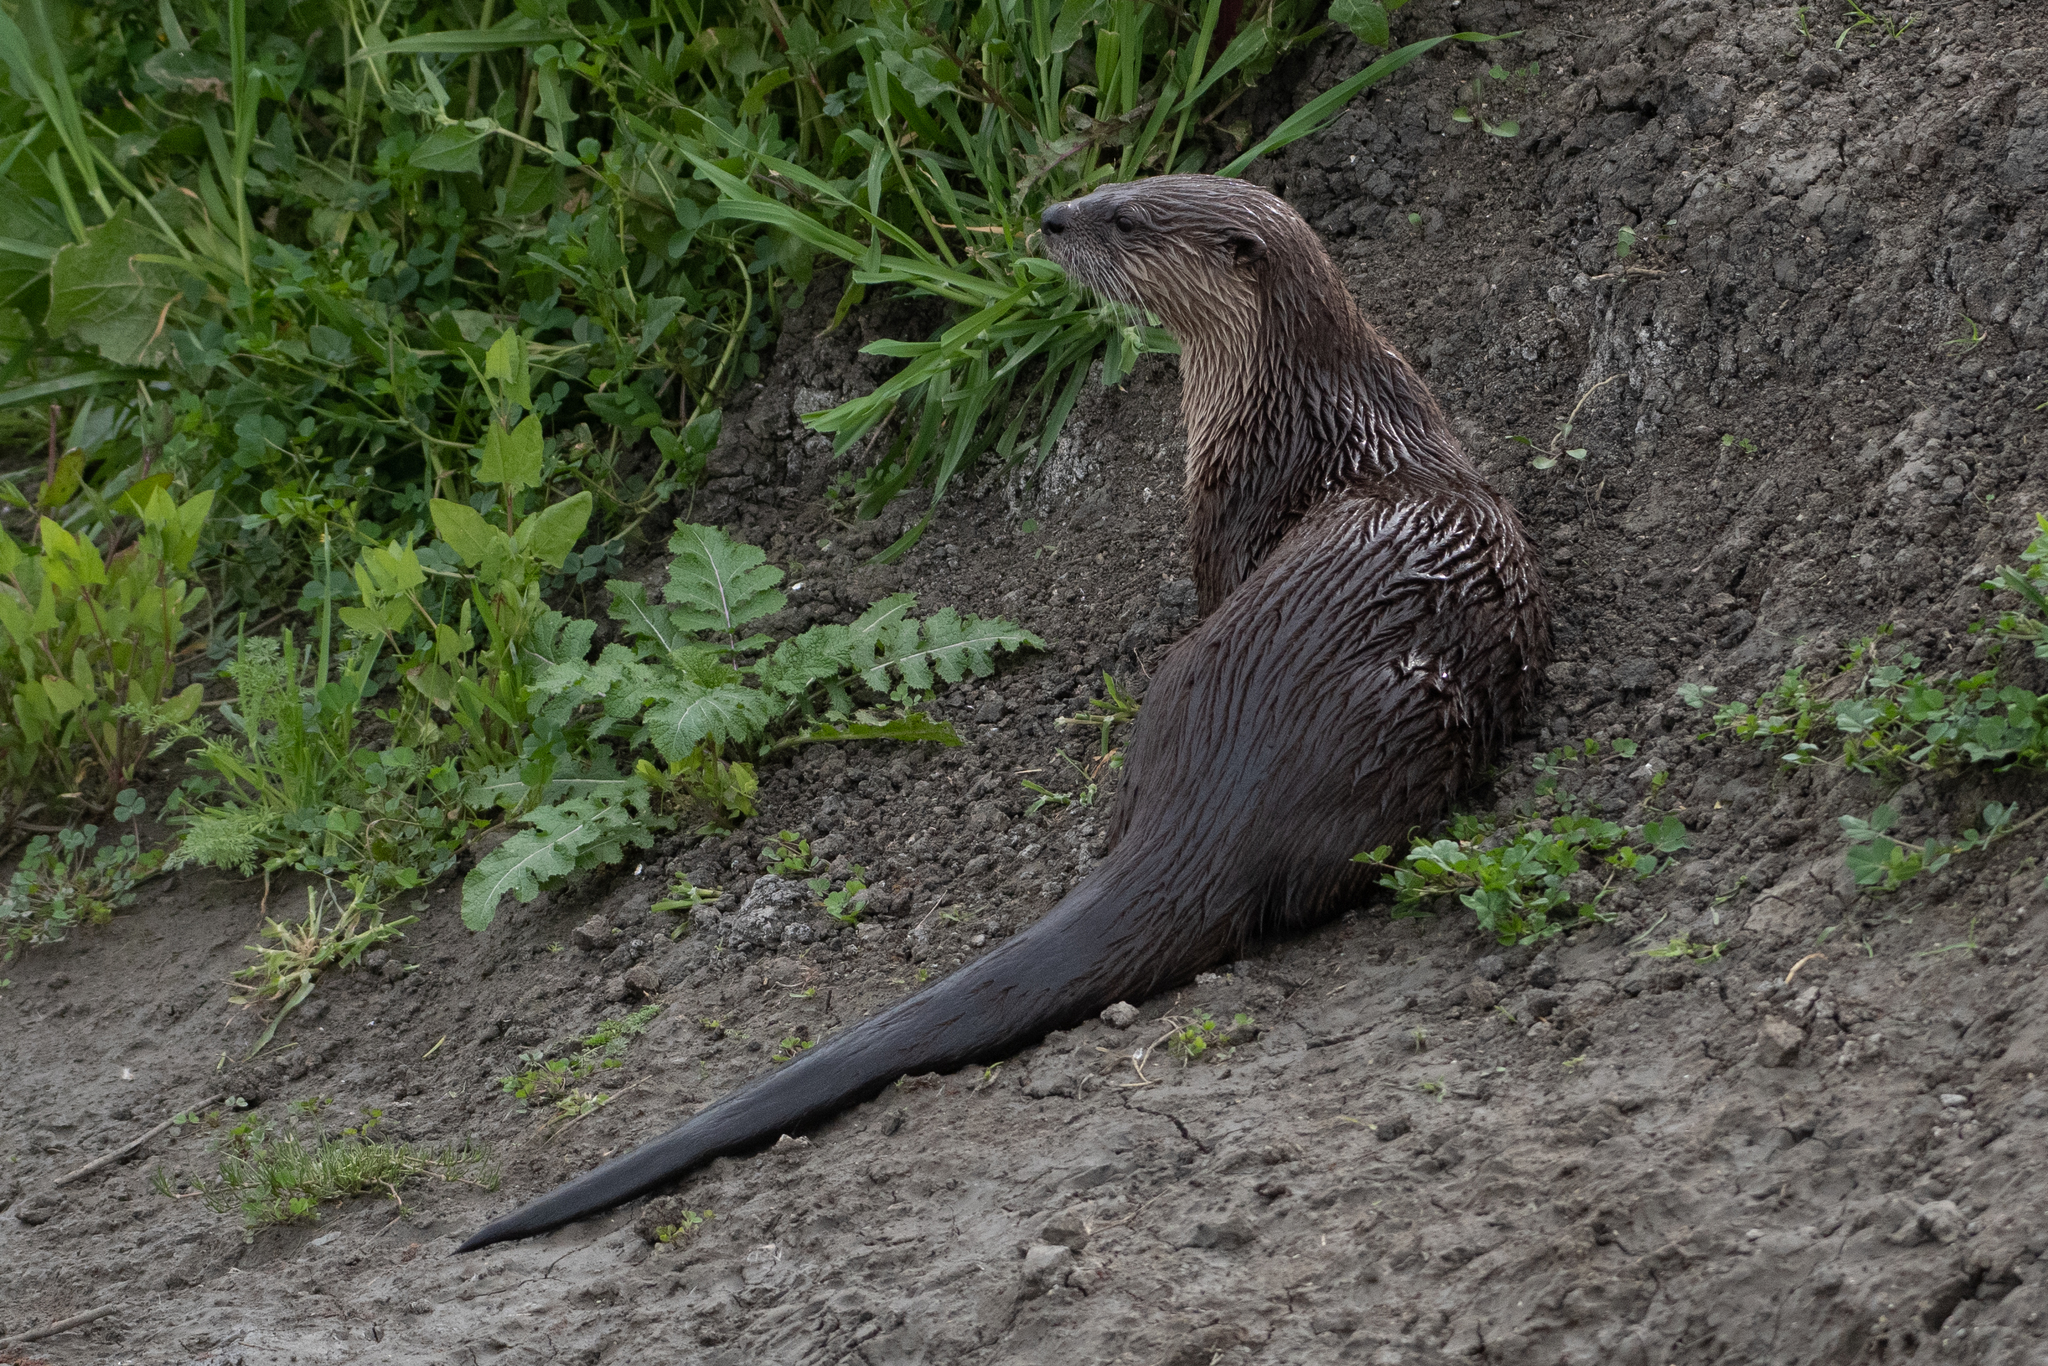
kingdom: Animalia
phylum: Chordata
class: Mammalia
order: Carnivora
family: Mustelidae
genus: Lontra
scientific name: Lontra canadensis
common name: North american river otter
